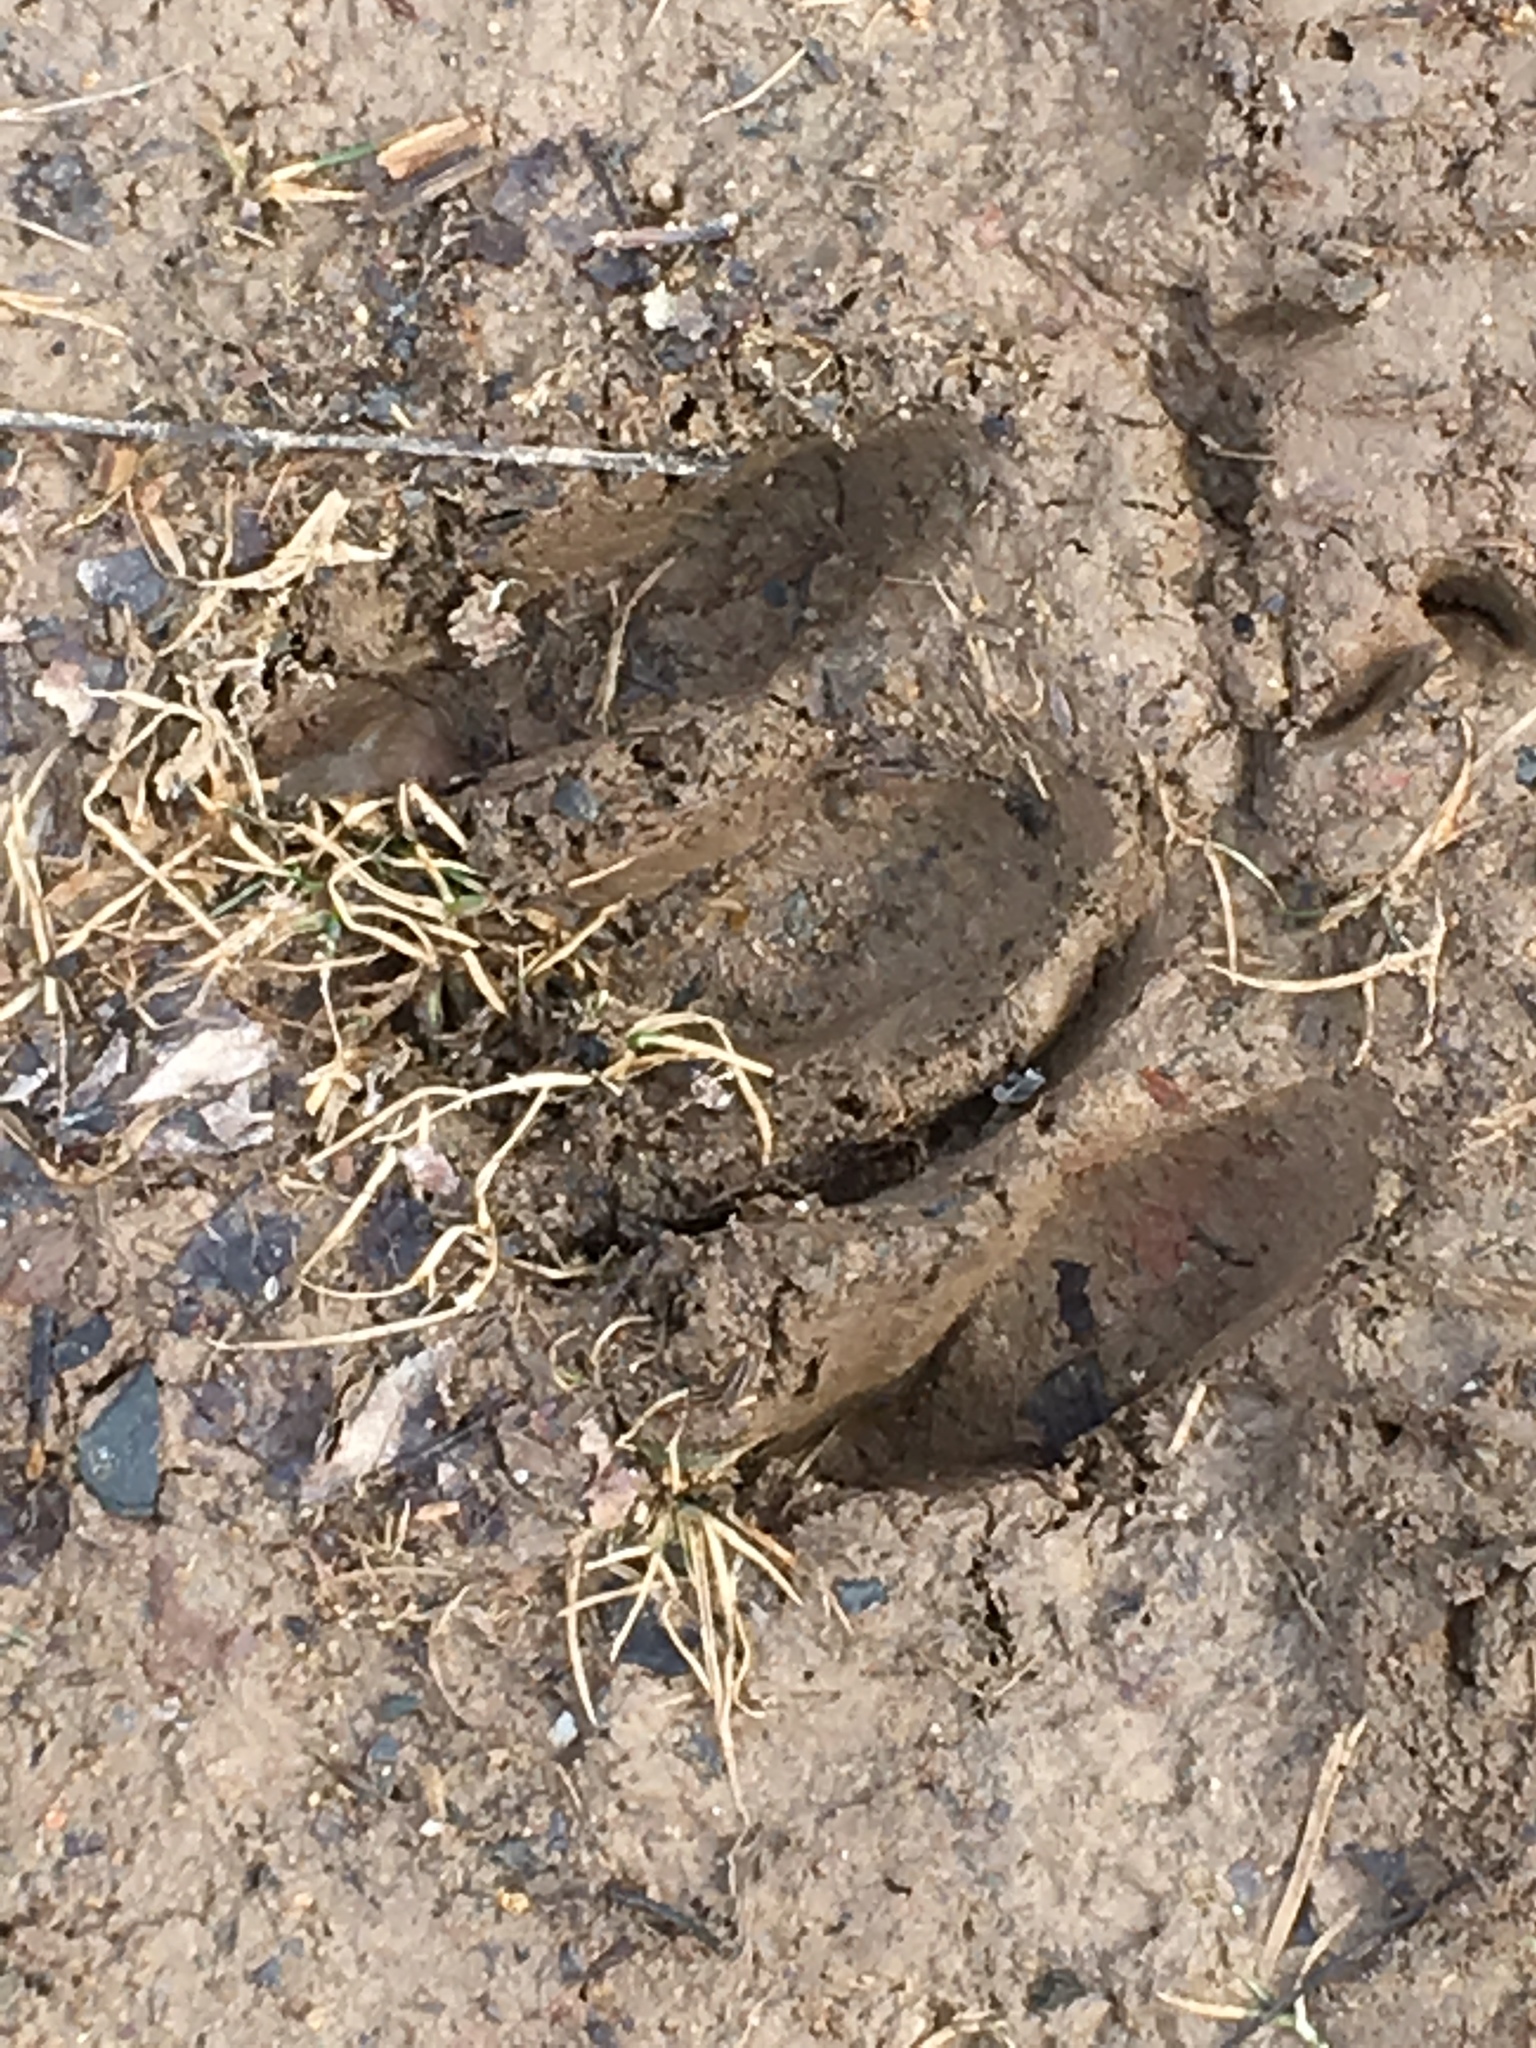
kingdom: Animalia
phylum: Chordata
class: Mammalia
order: Artiodactyla
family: Cervidae
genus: Odocoileus
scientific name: Odocoileus virginianus
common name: White-tailed deer
